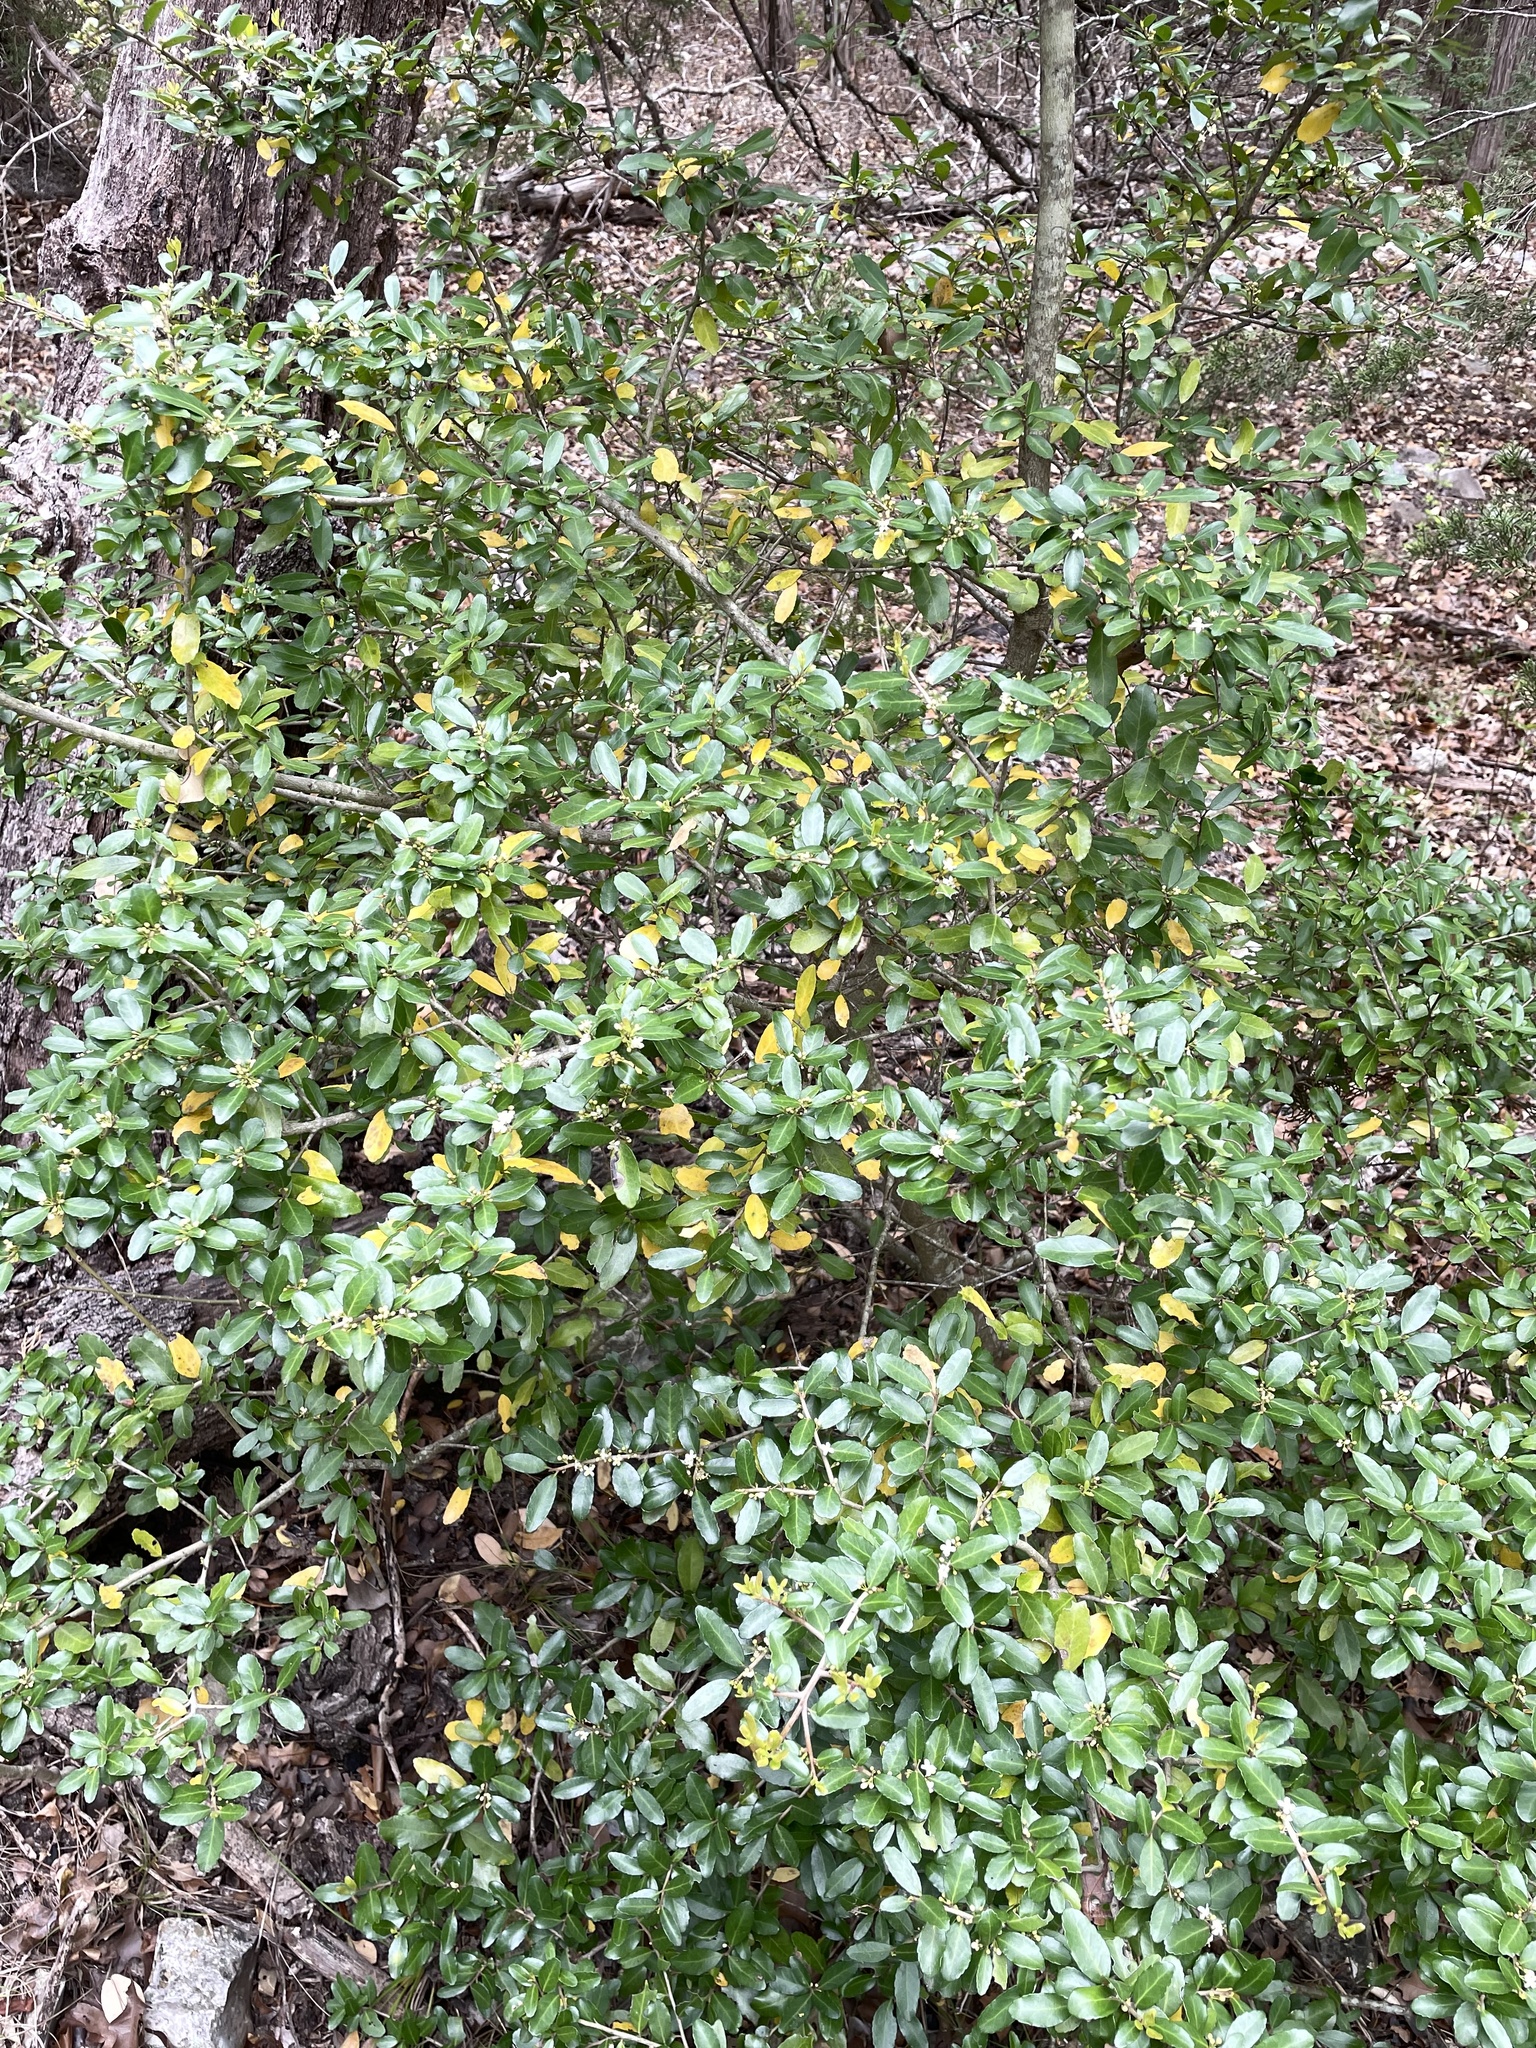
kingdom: Plantae
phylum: Tracheophyta
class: Magnoliopsida
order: Aquifoliales
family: Aquifoliaceae
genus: Ilex
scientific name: Ilex vomitoria
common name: Yaupon holly
